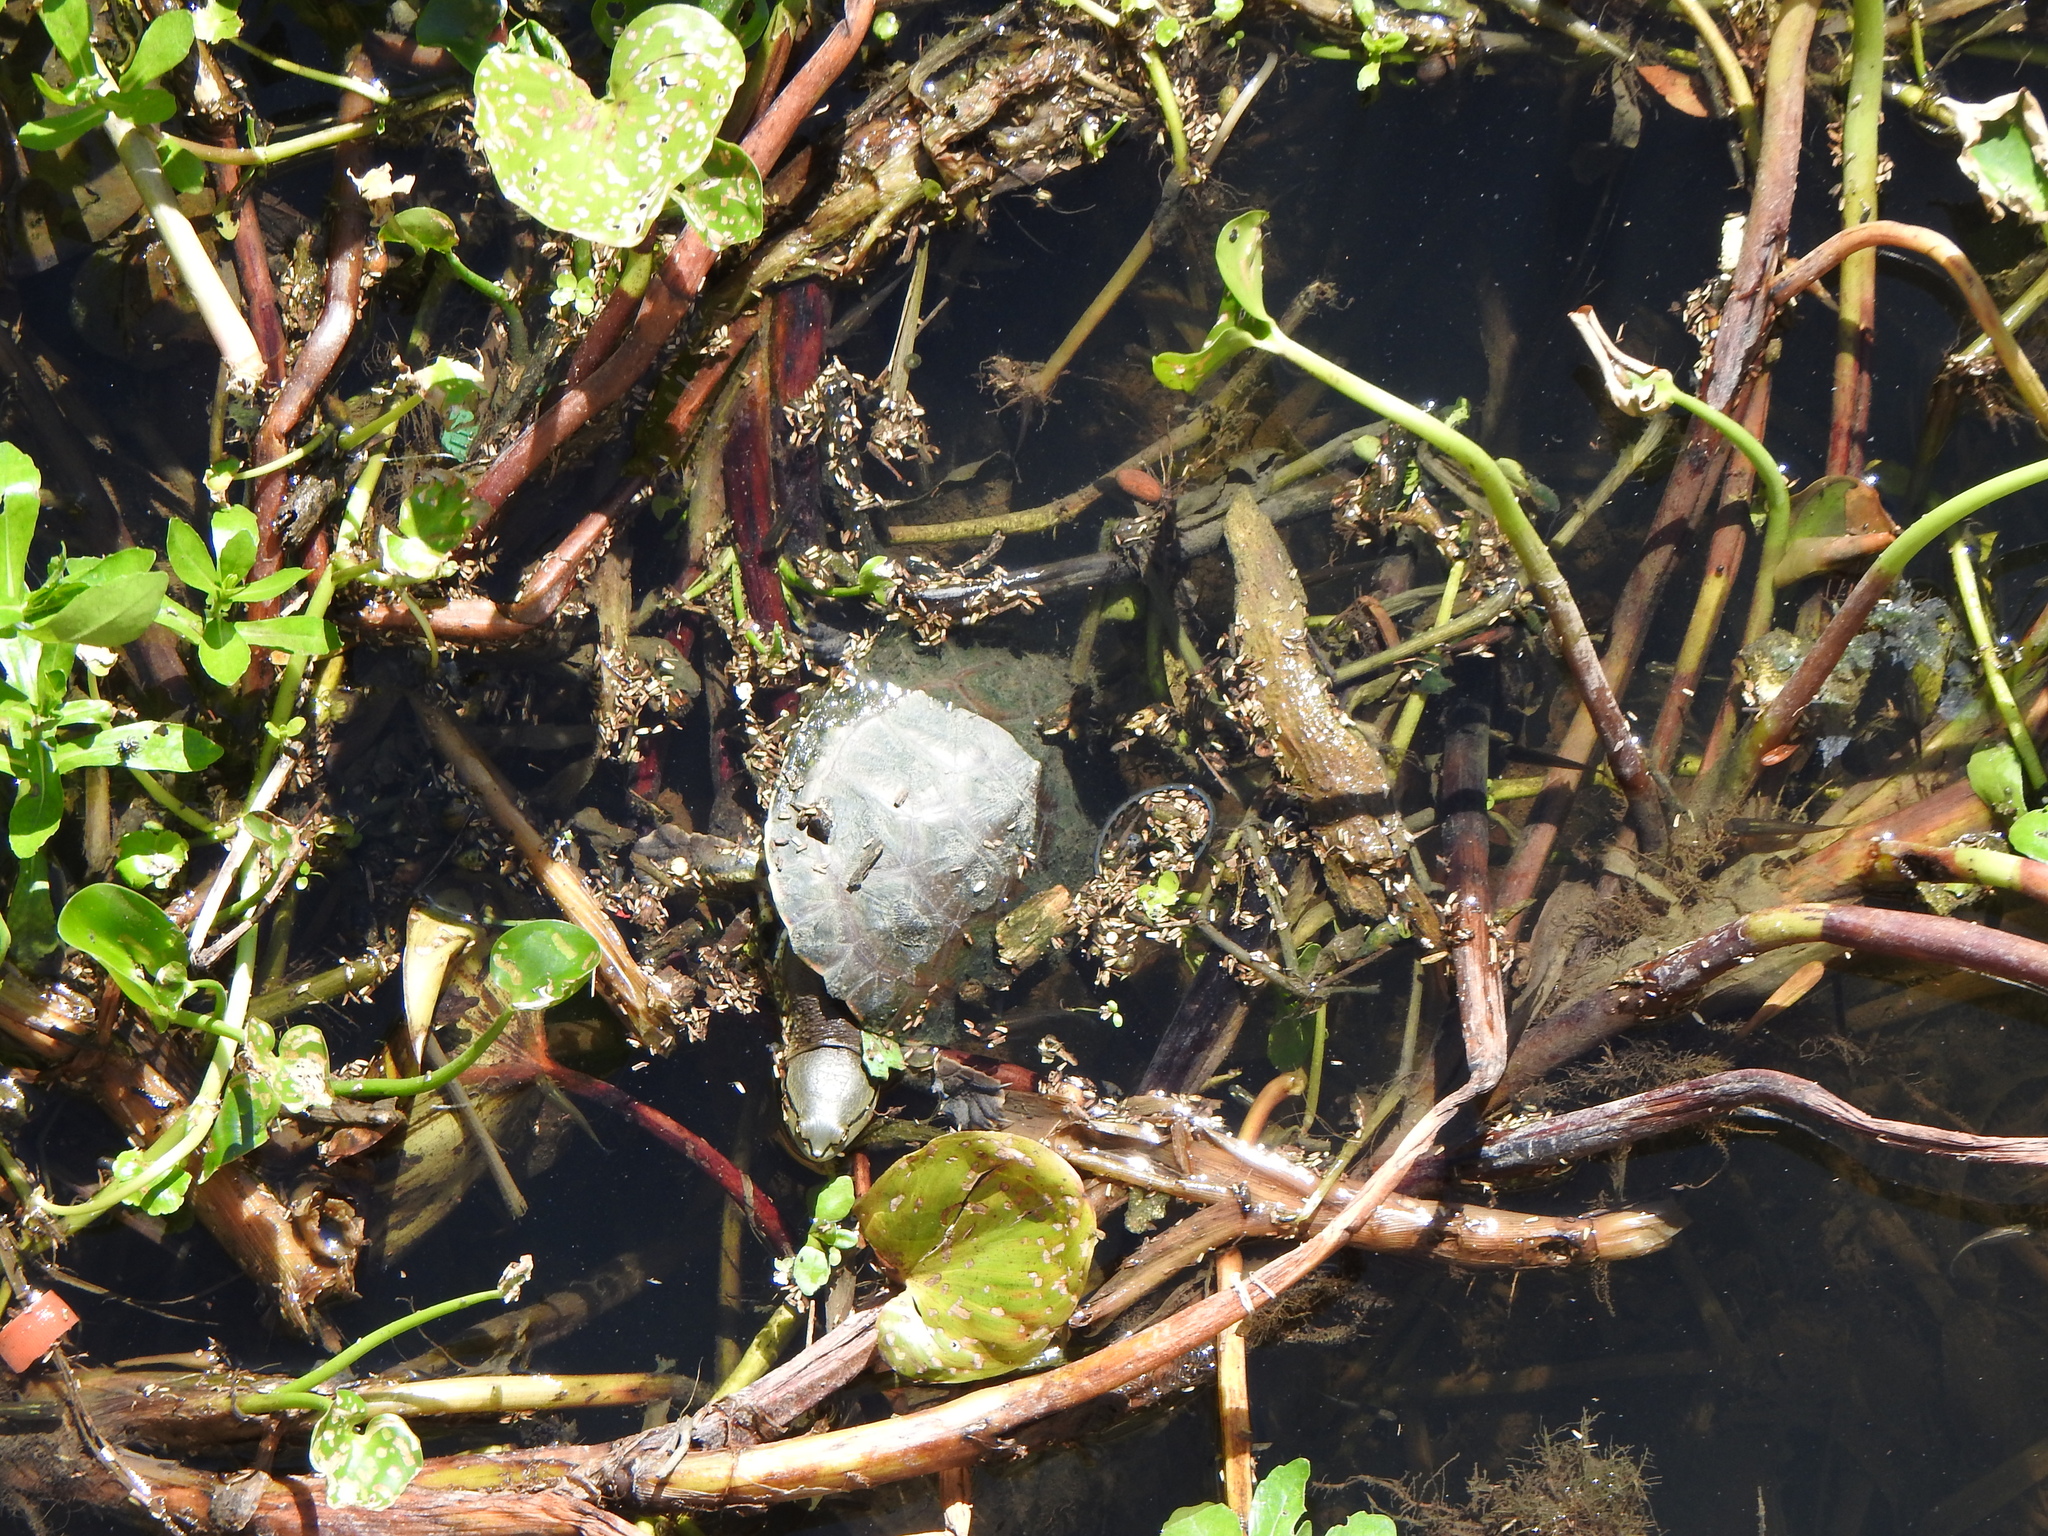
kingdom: Animalia
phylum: Chordata
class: Testudines
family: Chelidae
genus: Phrynops
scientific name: Phrynops hilarii
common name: Side-necked turtle of saint hillaire
